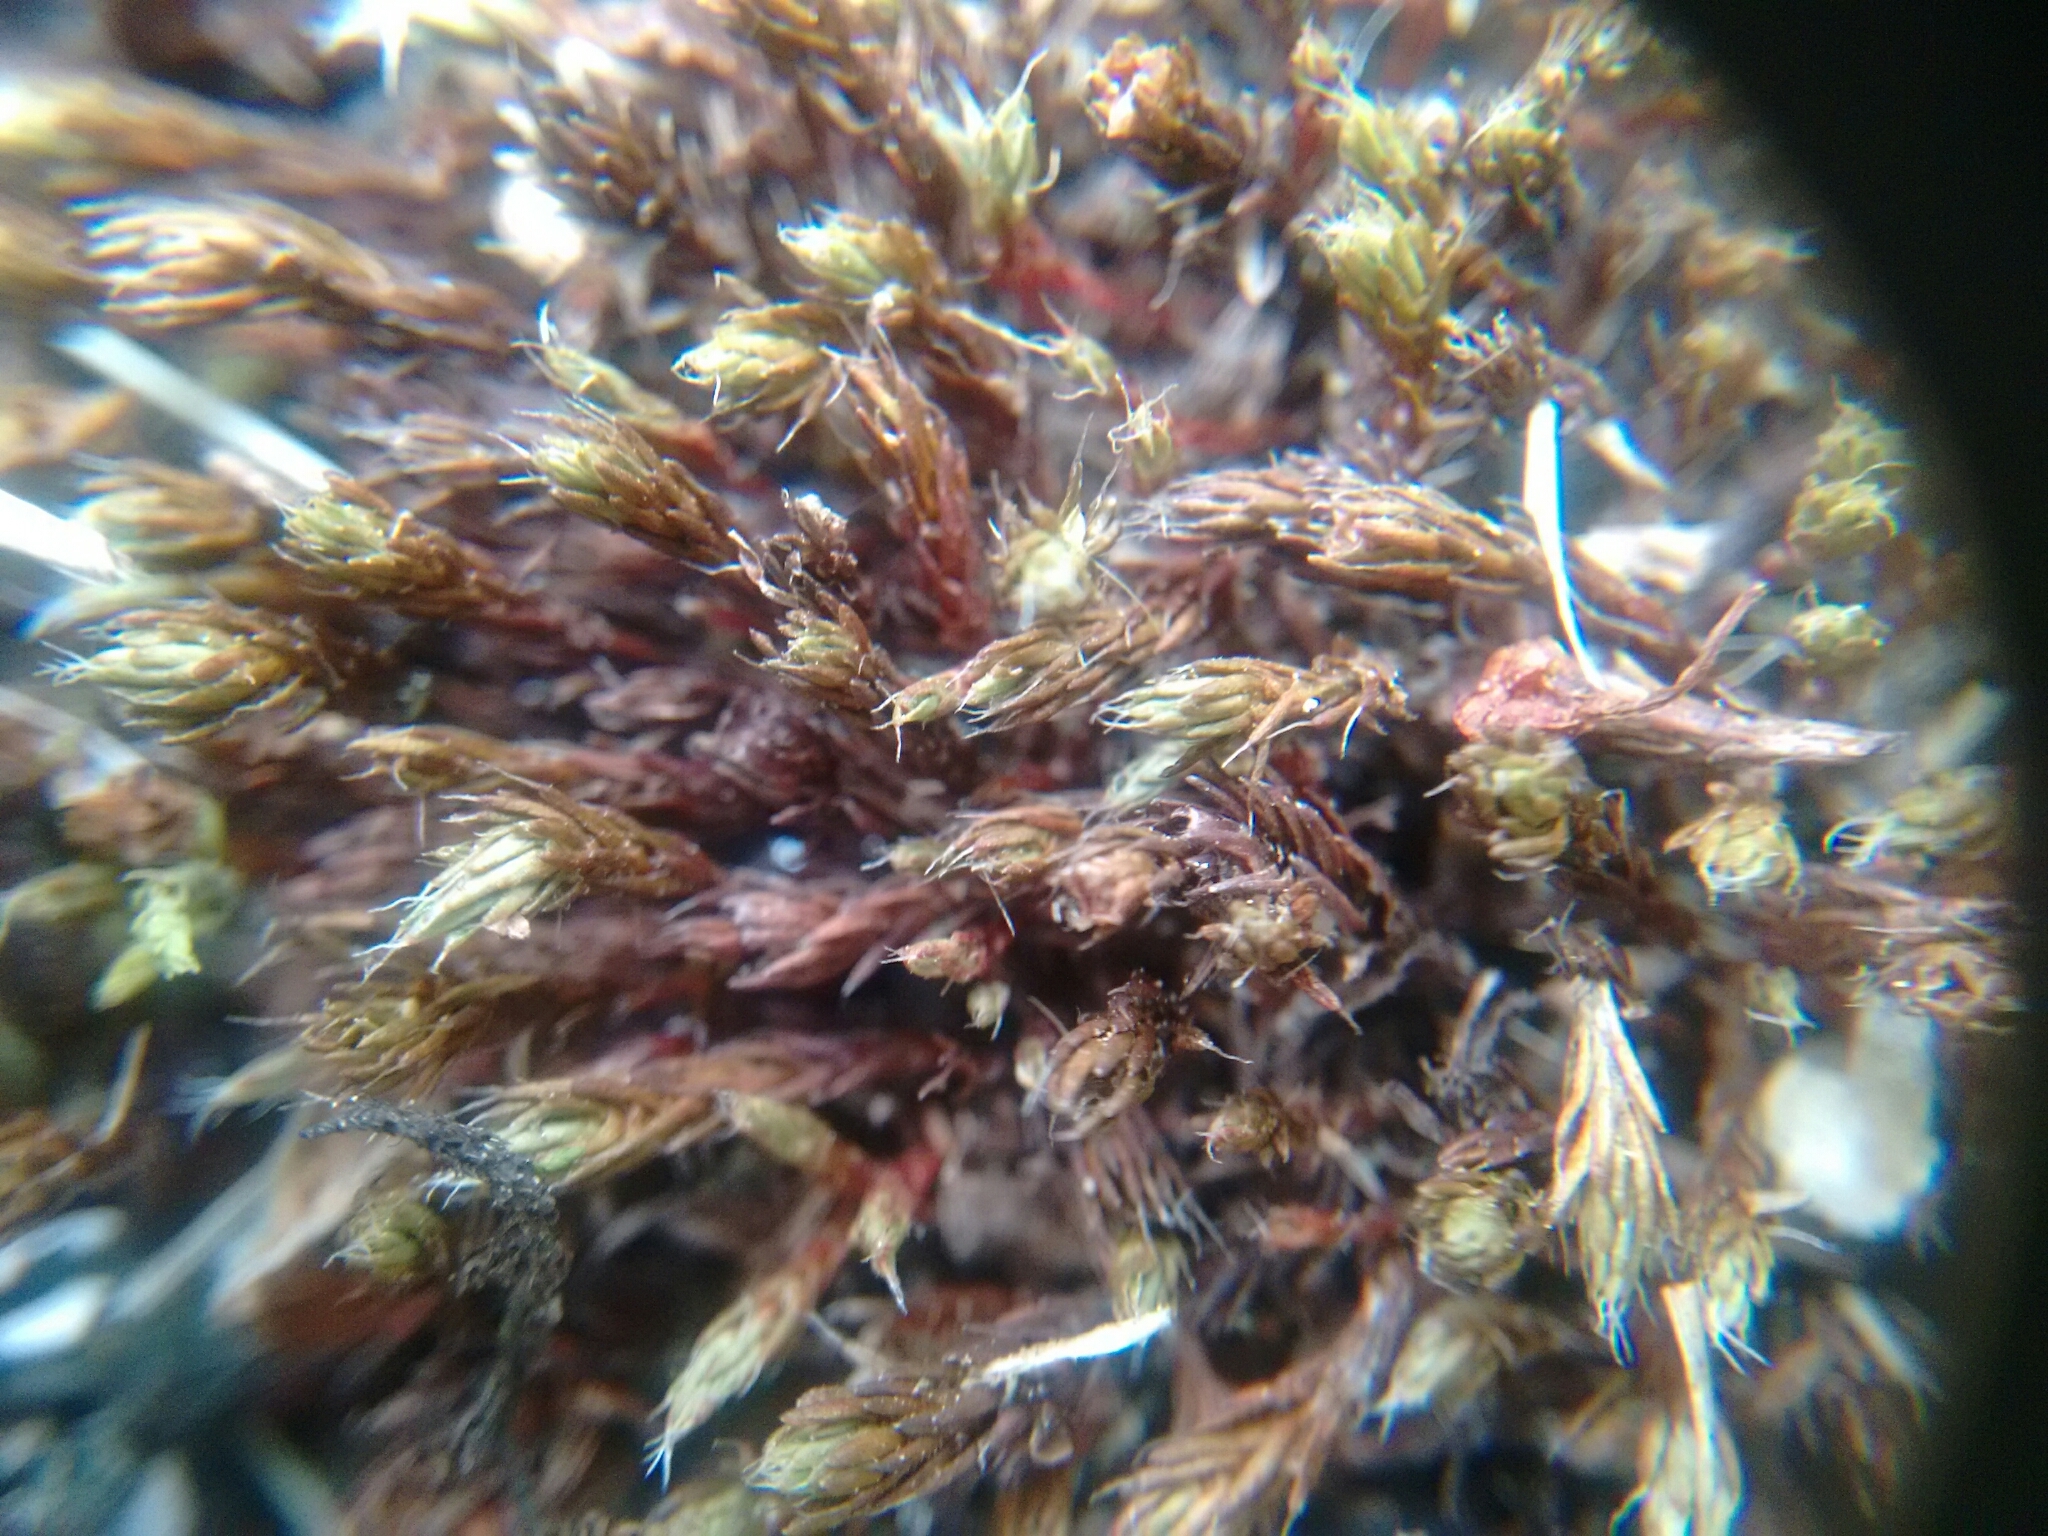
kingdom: Plantae
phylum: Bryophyta
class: Polytrichopsida
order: Polytrichales
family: Polytrichaceae
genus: Polytrichum
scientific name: Polytrichum piliferum
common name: Bristly haircap
